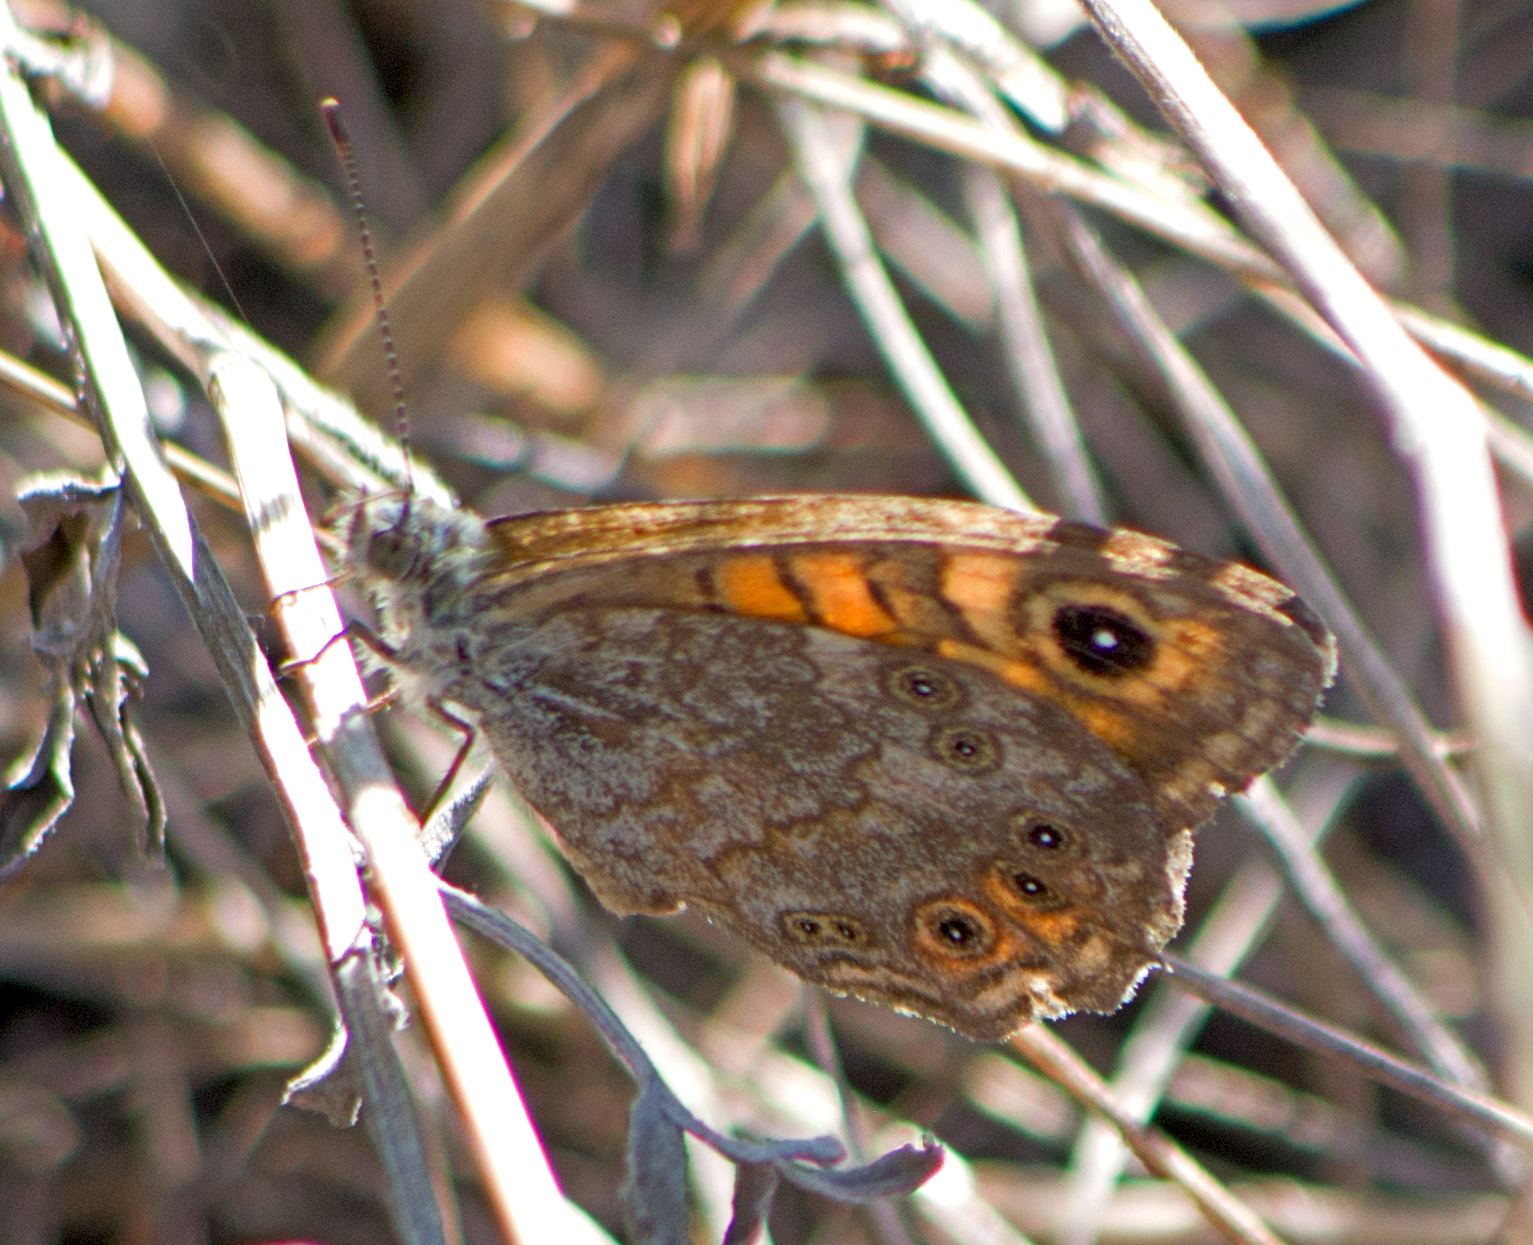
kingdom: Animalia
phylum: Arthropoda
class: Insecta
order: Lepidoptera
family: Nymphalidae
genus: Pararge
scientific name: Pararge Lasiommata megera
